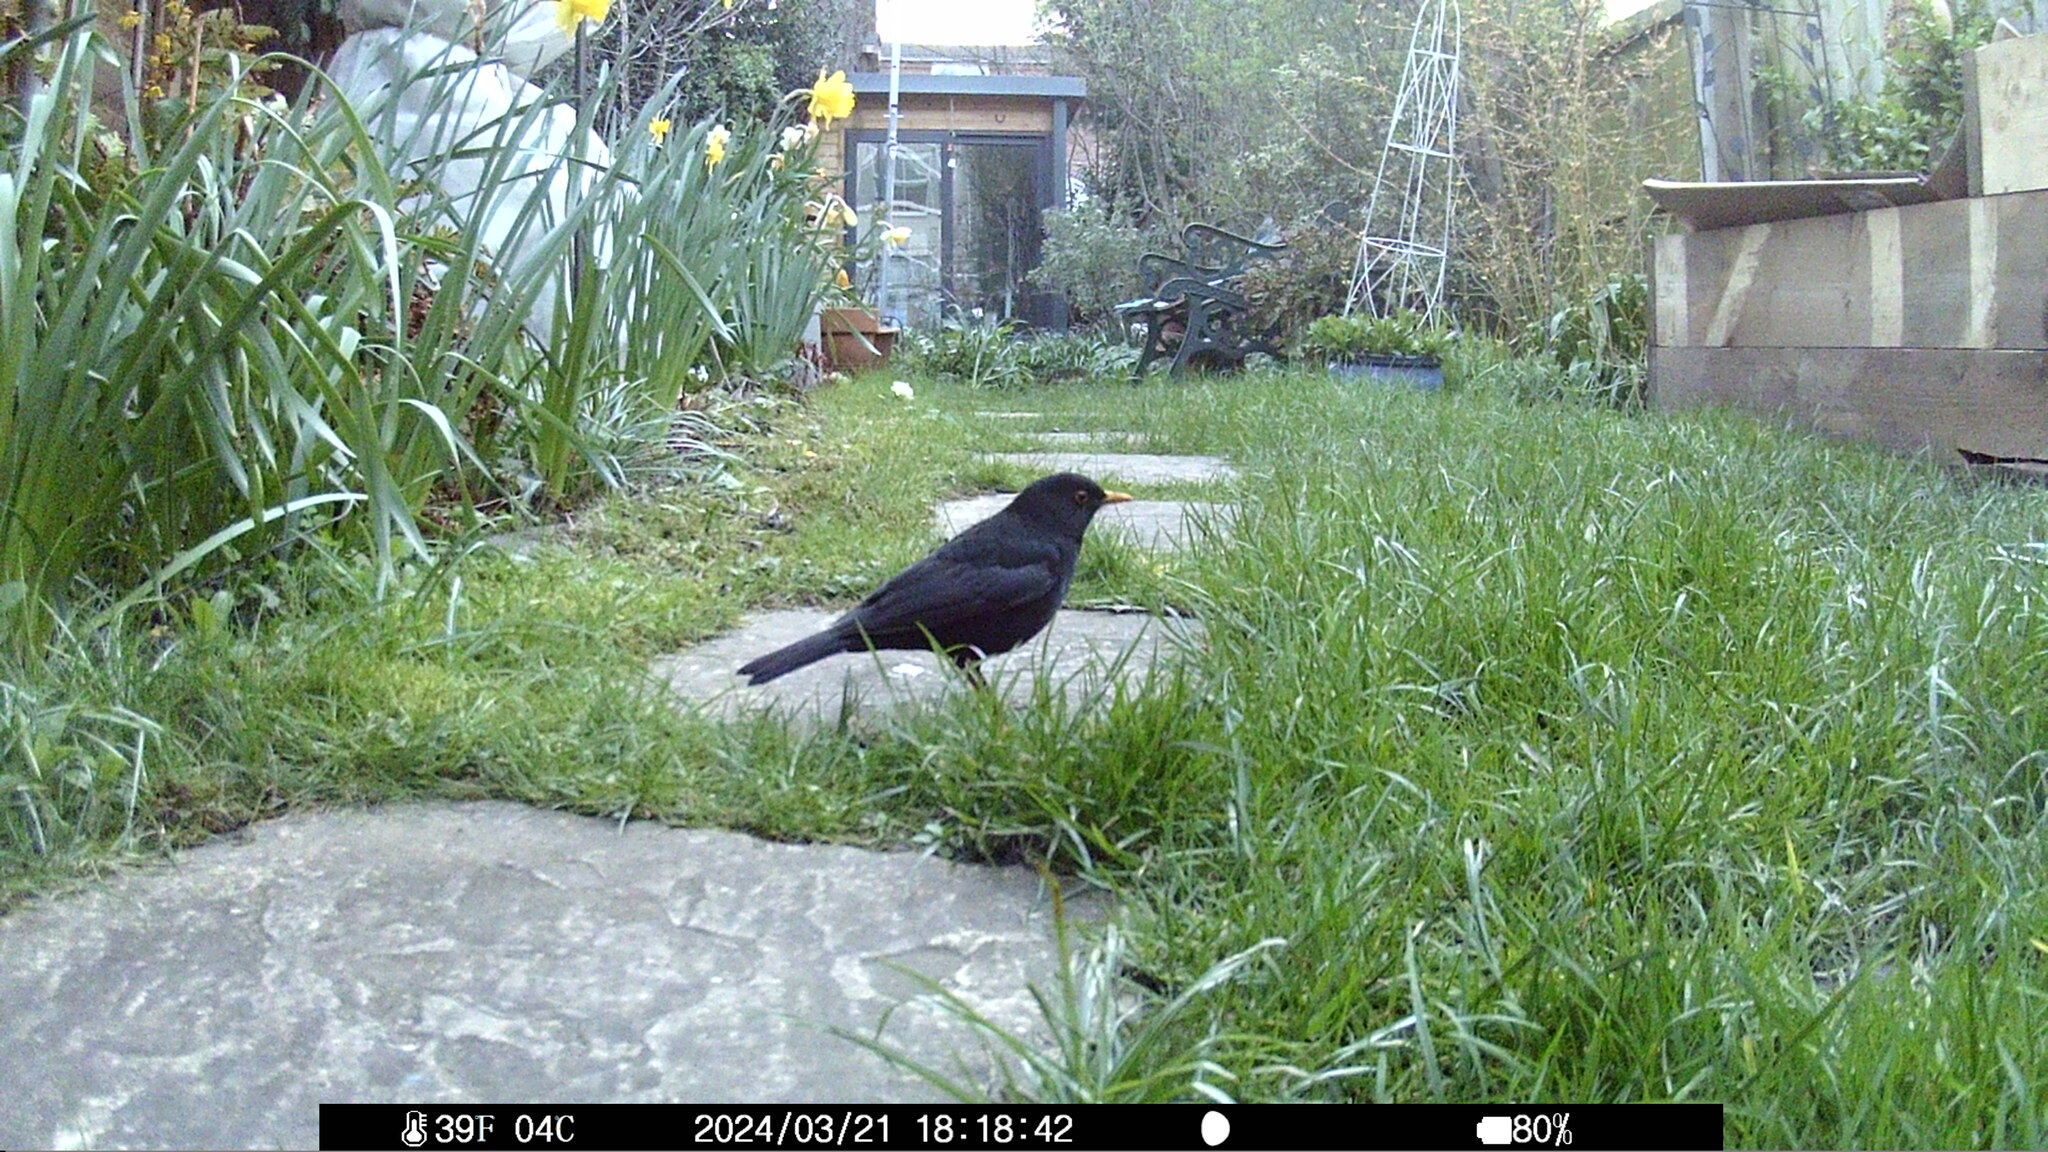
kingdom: Animalia
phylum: Chordata
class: Aves
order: Passeriformes
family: Turdidae
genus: Turdus
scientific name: Turdus merula
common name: Common blackbird
